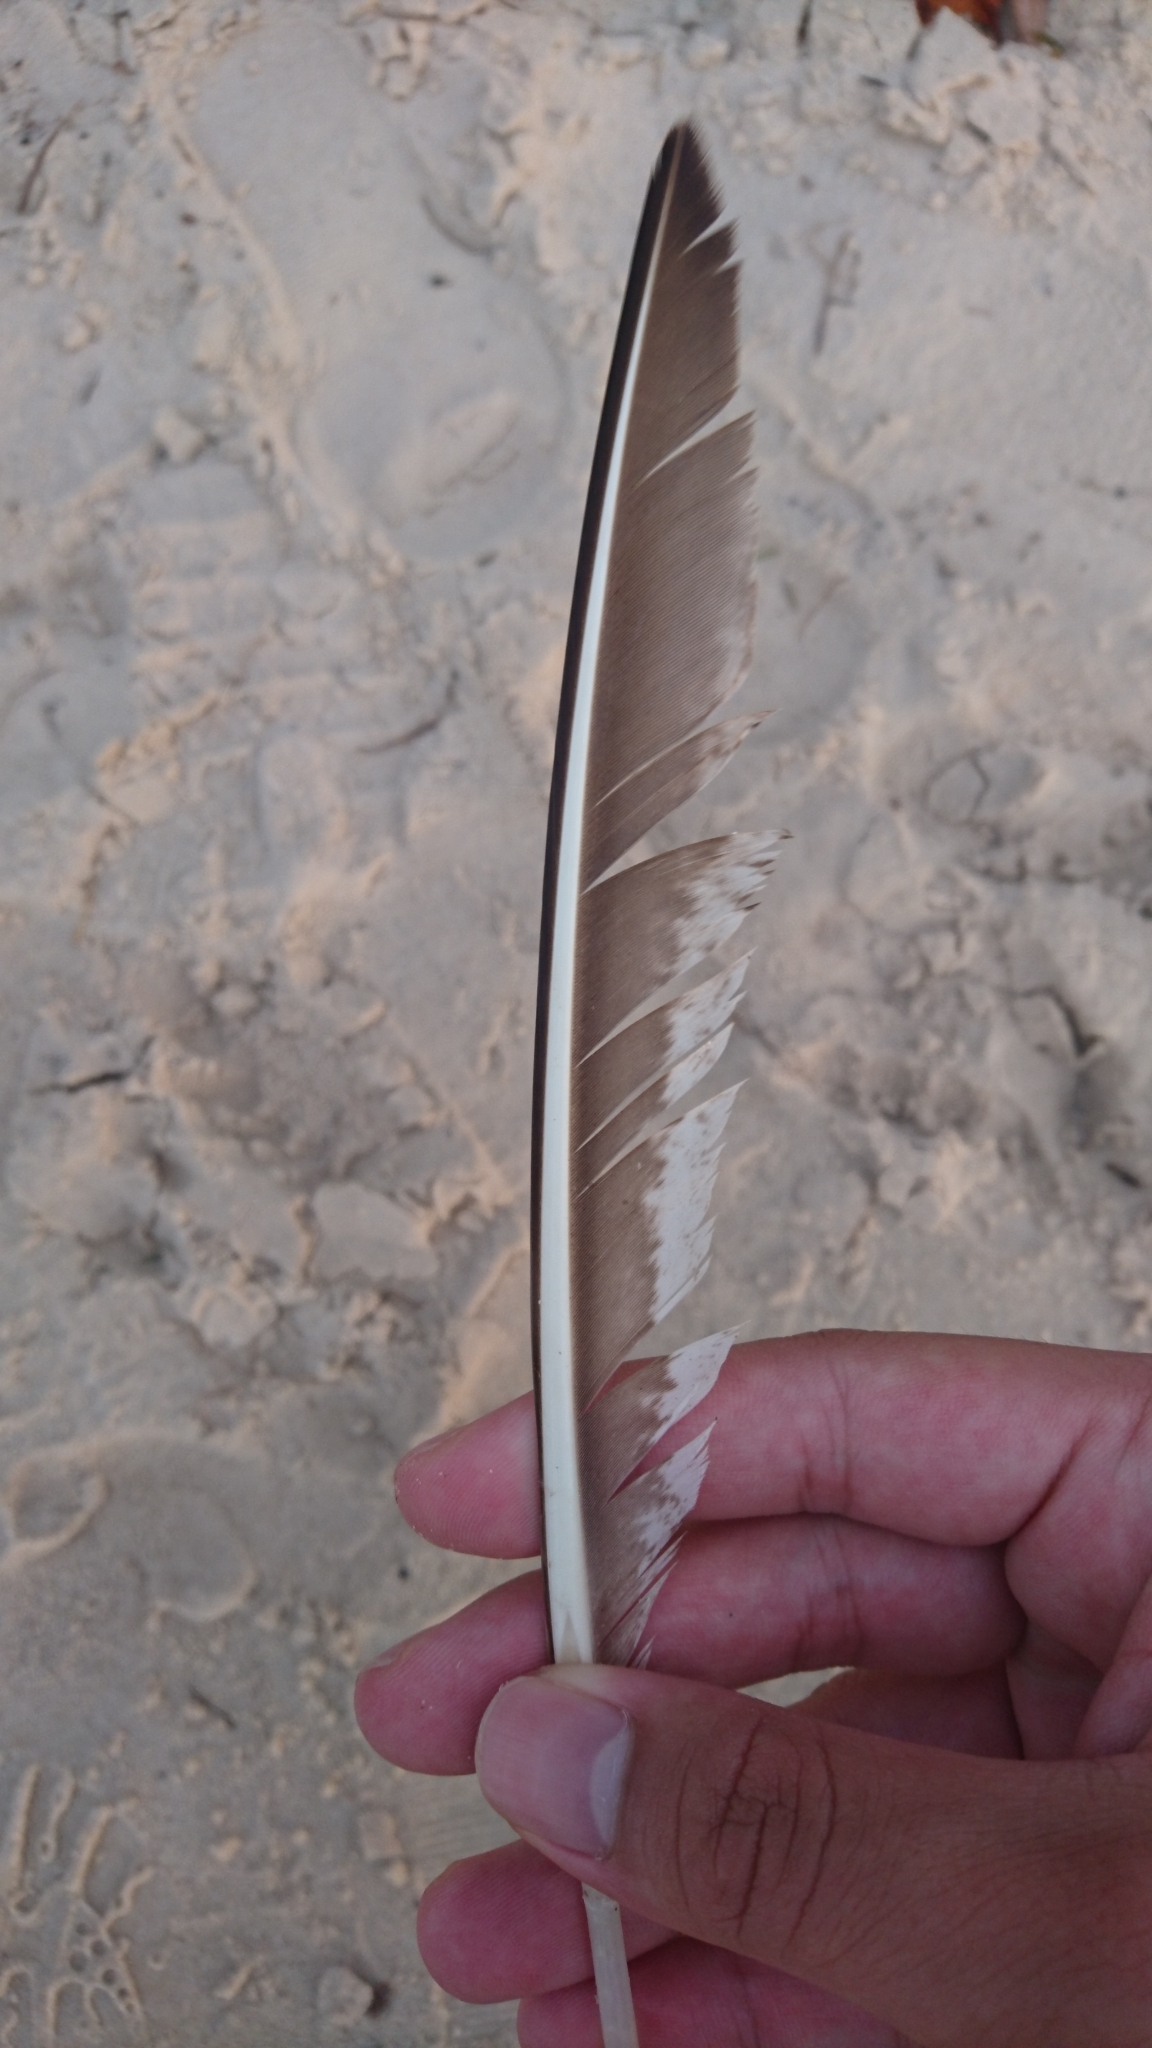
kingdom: Animalia
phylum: Chordata
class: Aves
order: Charadriiformes
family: Scolopacidae
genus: Numenius
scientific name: Numenius phaeopus
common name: Whimbrel
